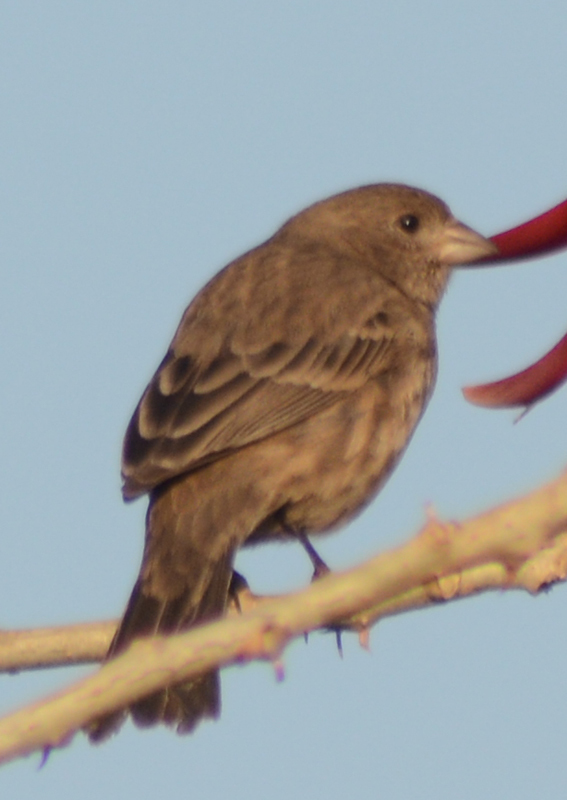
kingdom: Animalia
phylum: Chordata
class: Aves
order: Passeriformes
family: Fringillidae
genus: Haemorhous
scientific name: Haemorhous mexicanus
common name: House finch
